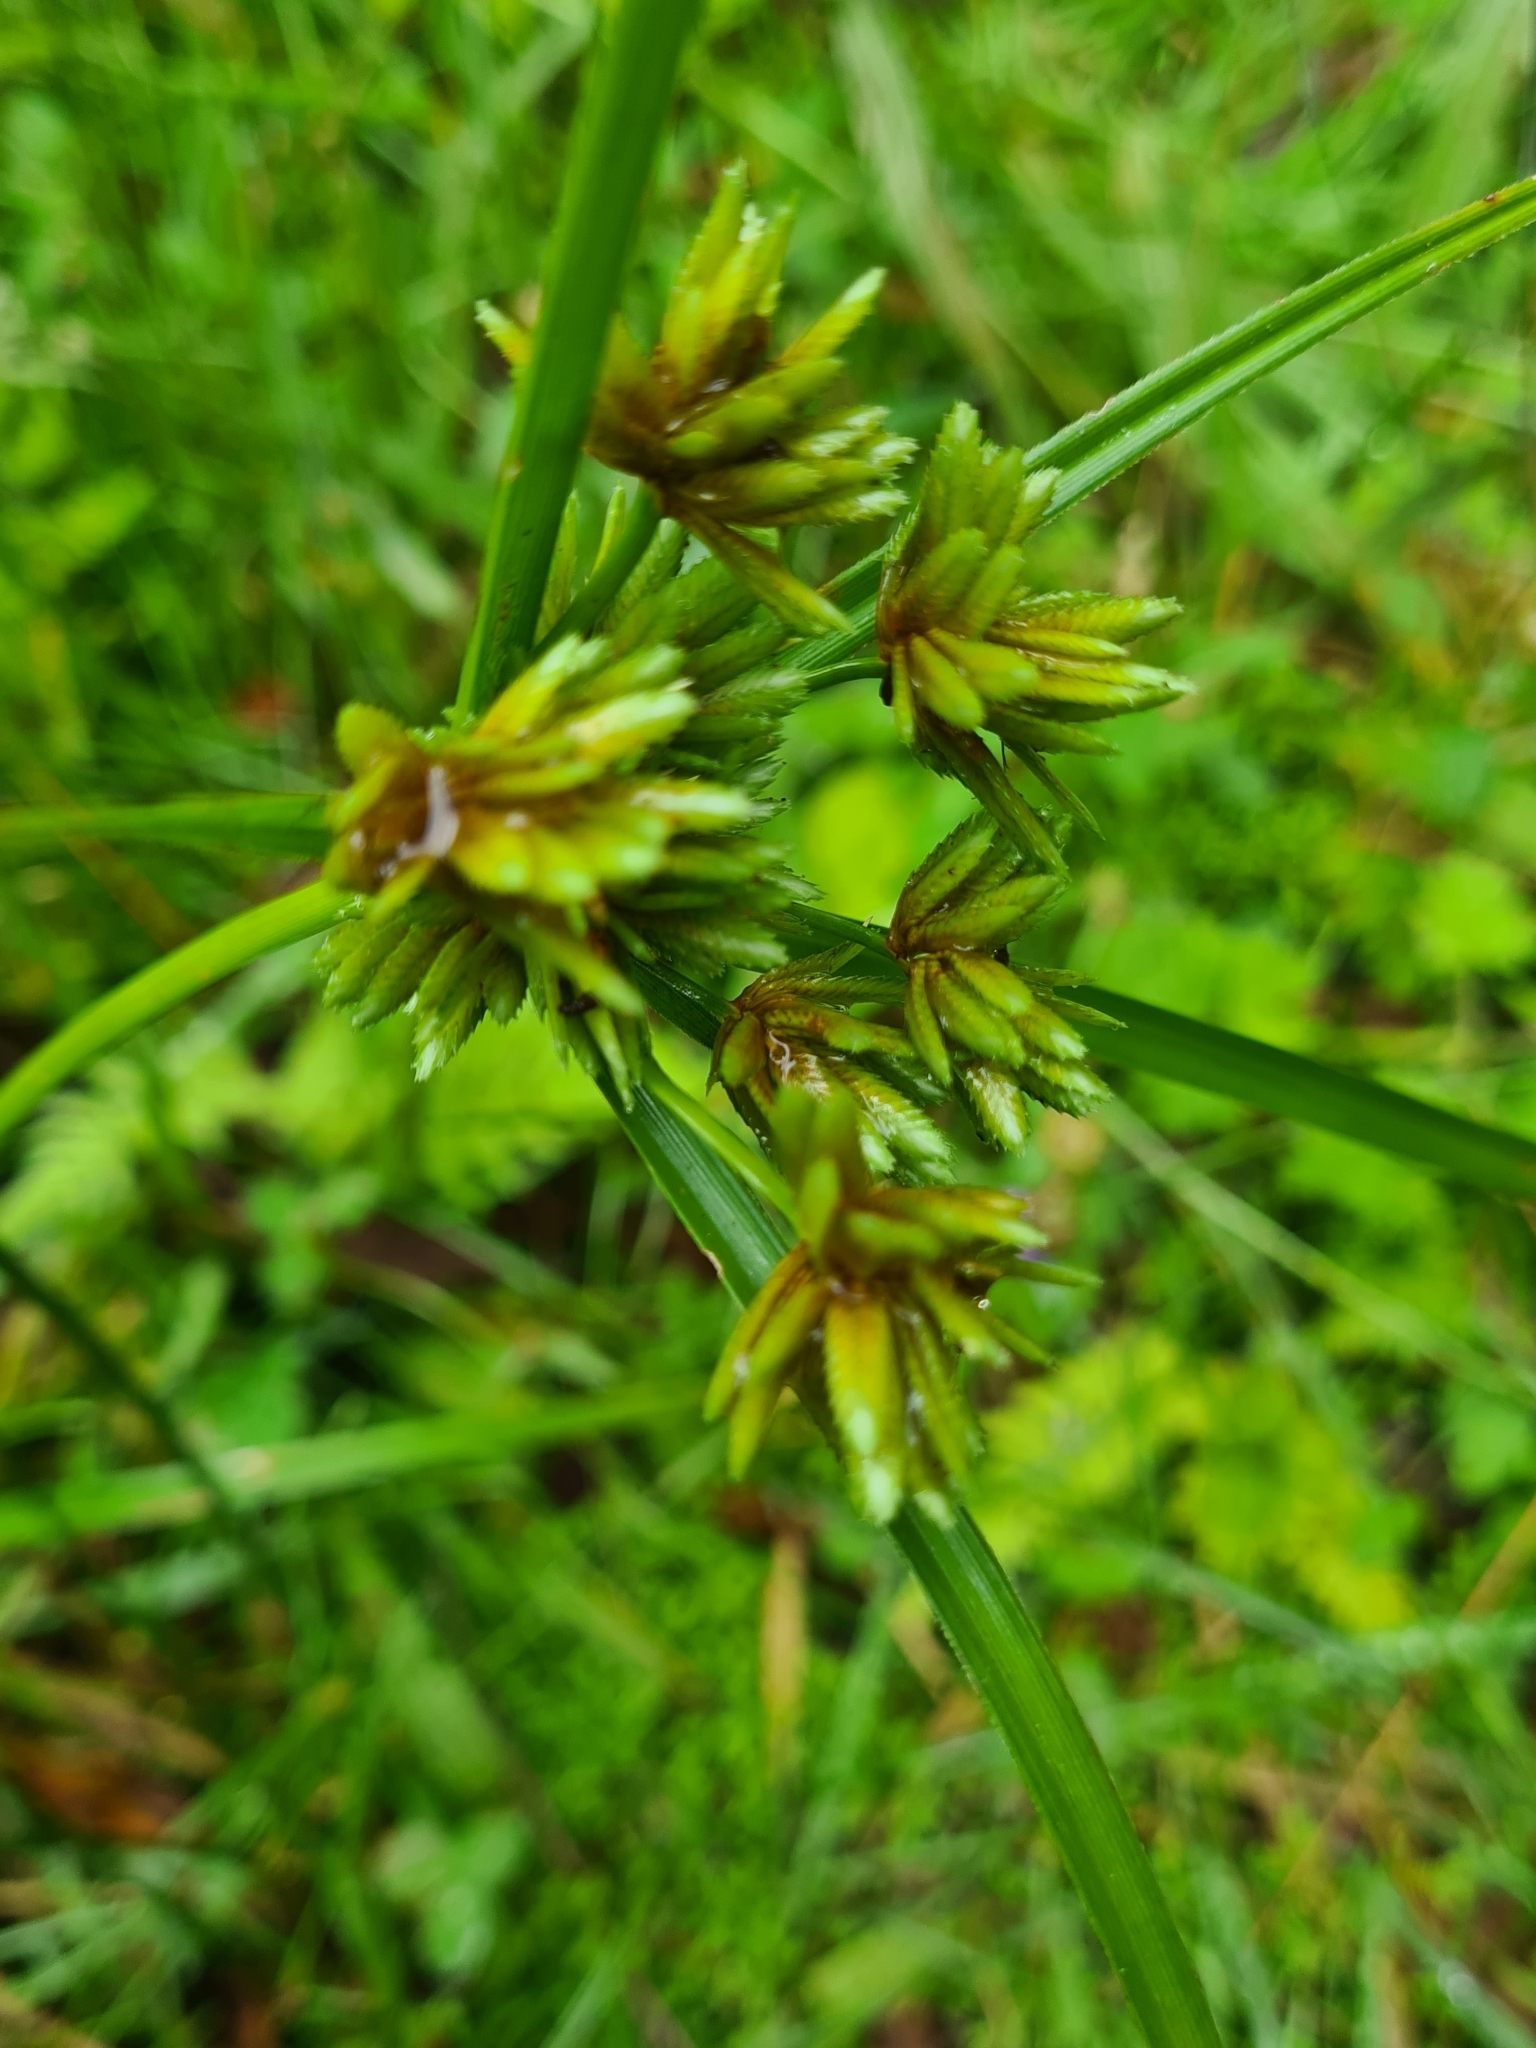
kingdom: Plantae
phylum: Tracheophyta
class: Liliopsida
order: Poales
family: Cyperaceae
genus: Cyperus
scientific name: Cyperus eragrostis
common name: Tall flatsedge
